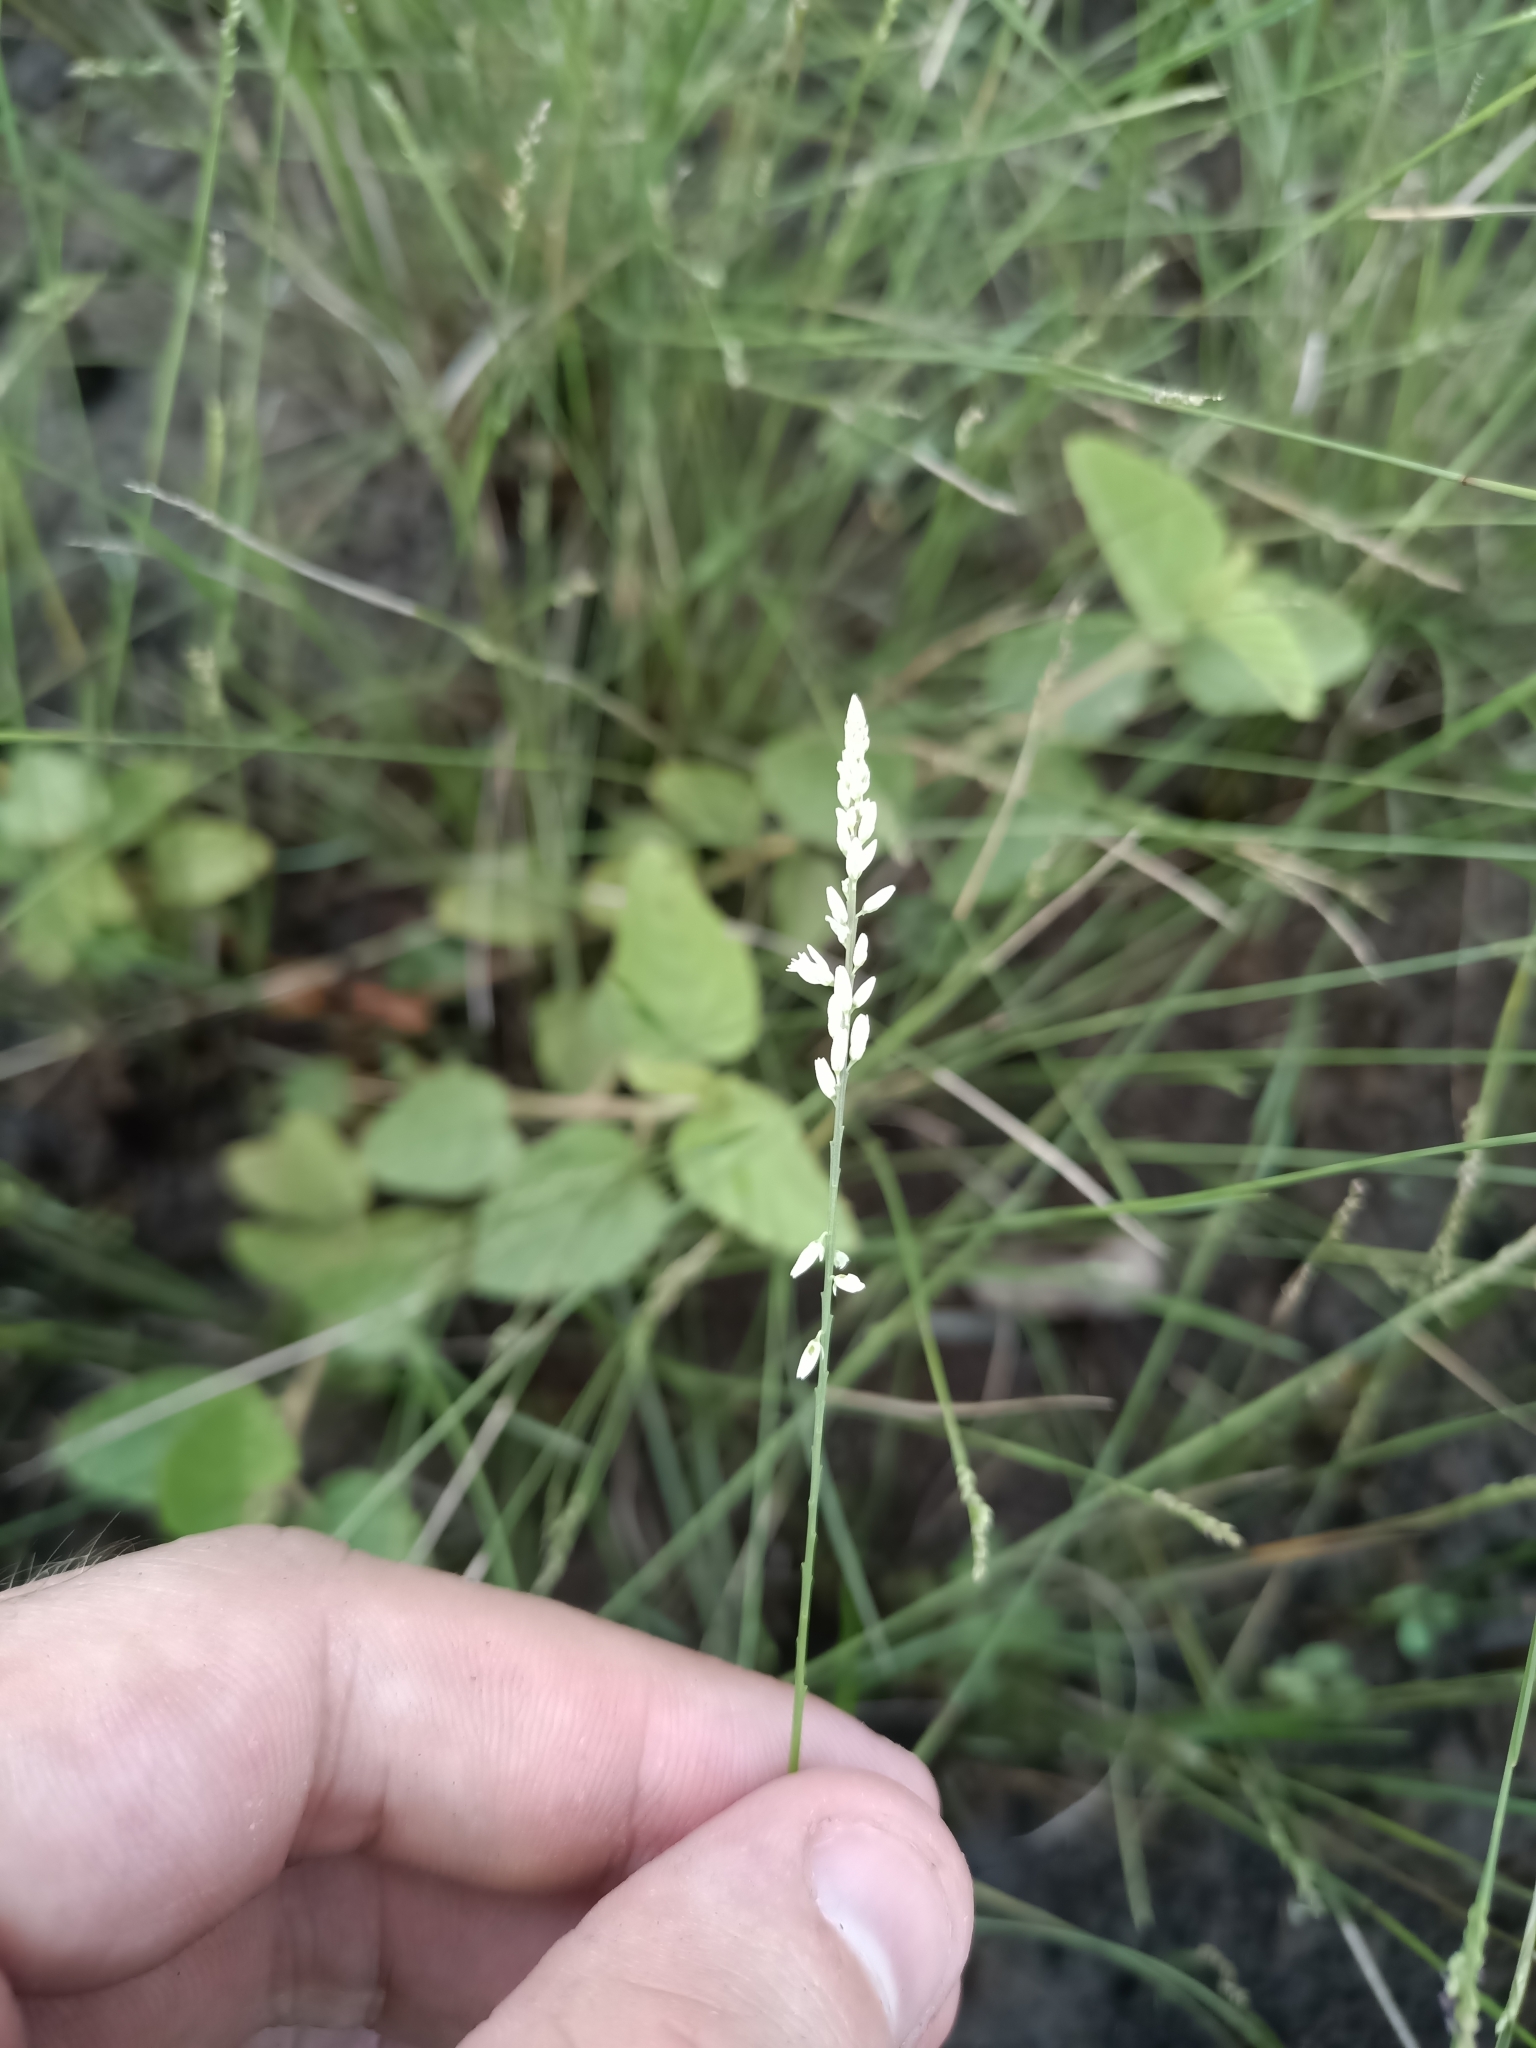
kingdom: Plantae
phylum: Tracheophyta
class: Magnoliopsida
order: Fabales
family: Polygalaceae
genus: Polygala
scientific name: Polygala tenella
